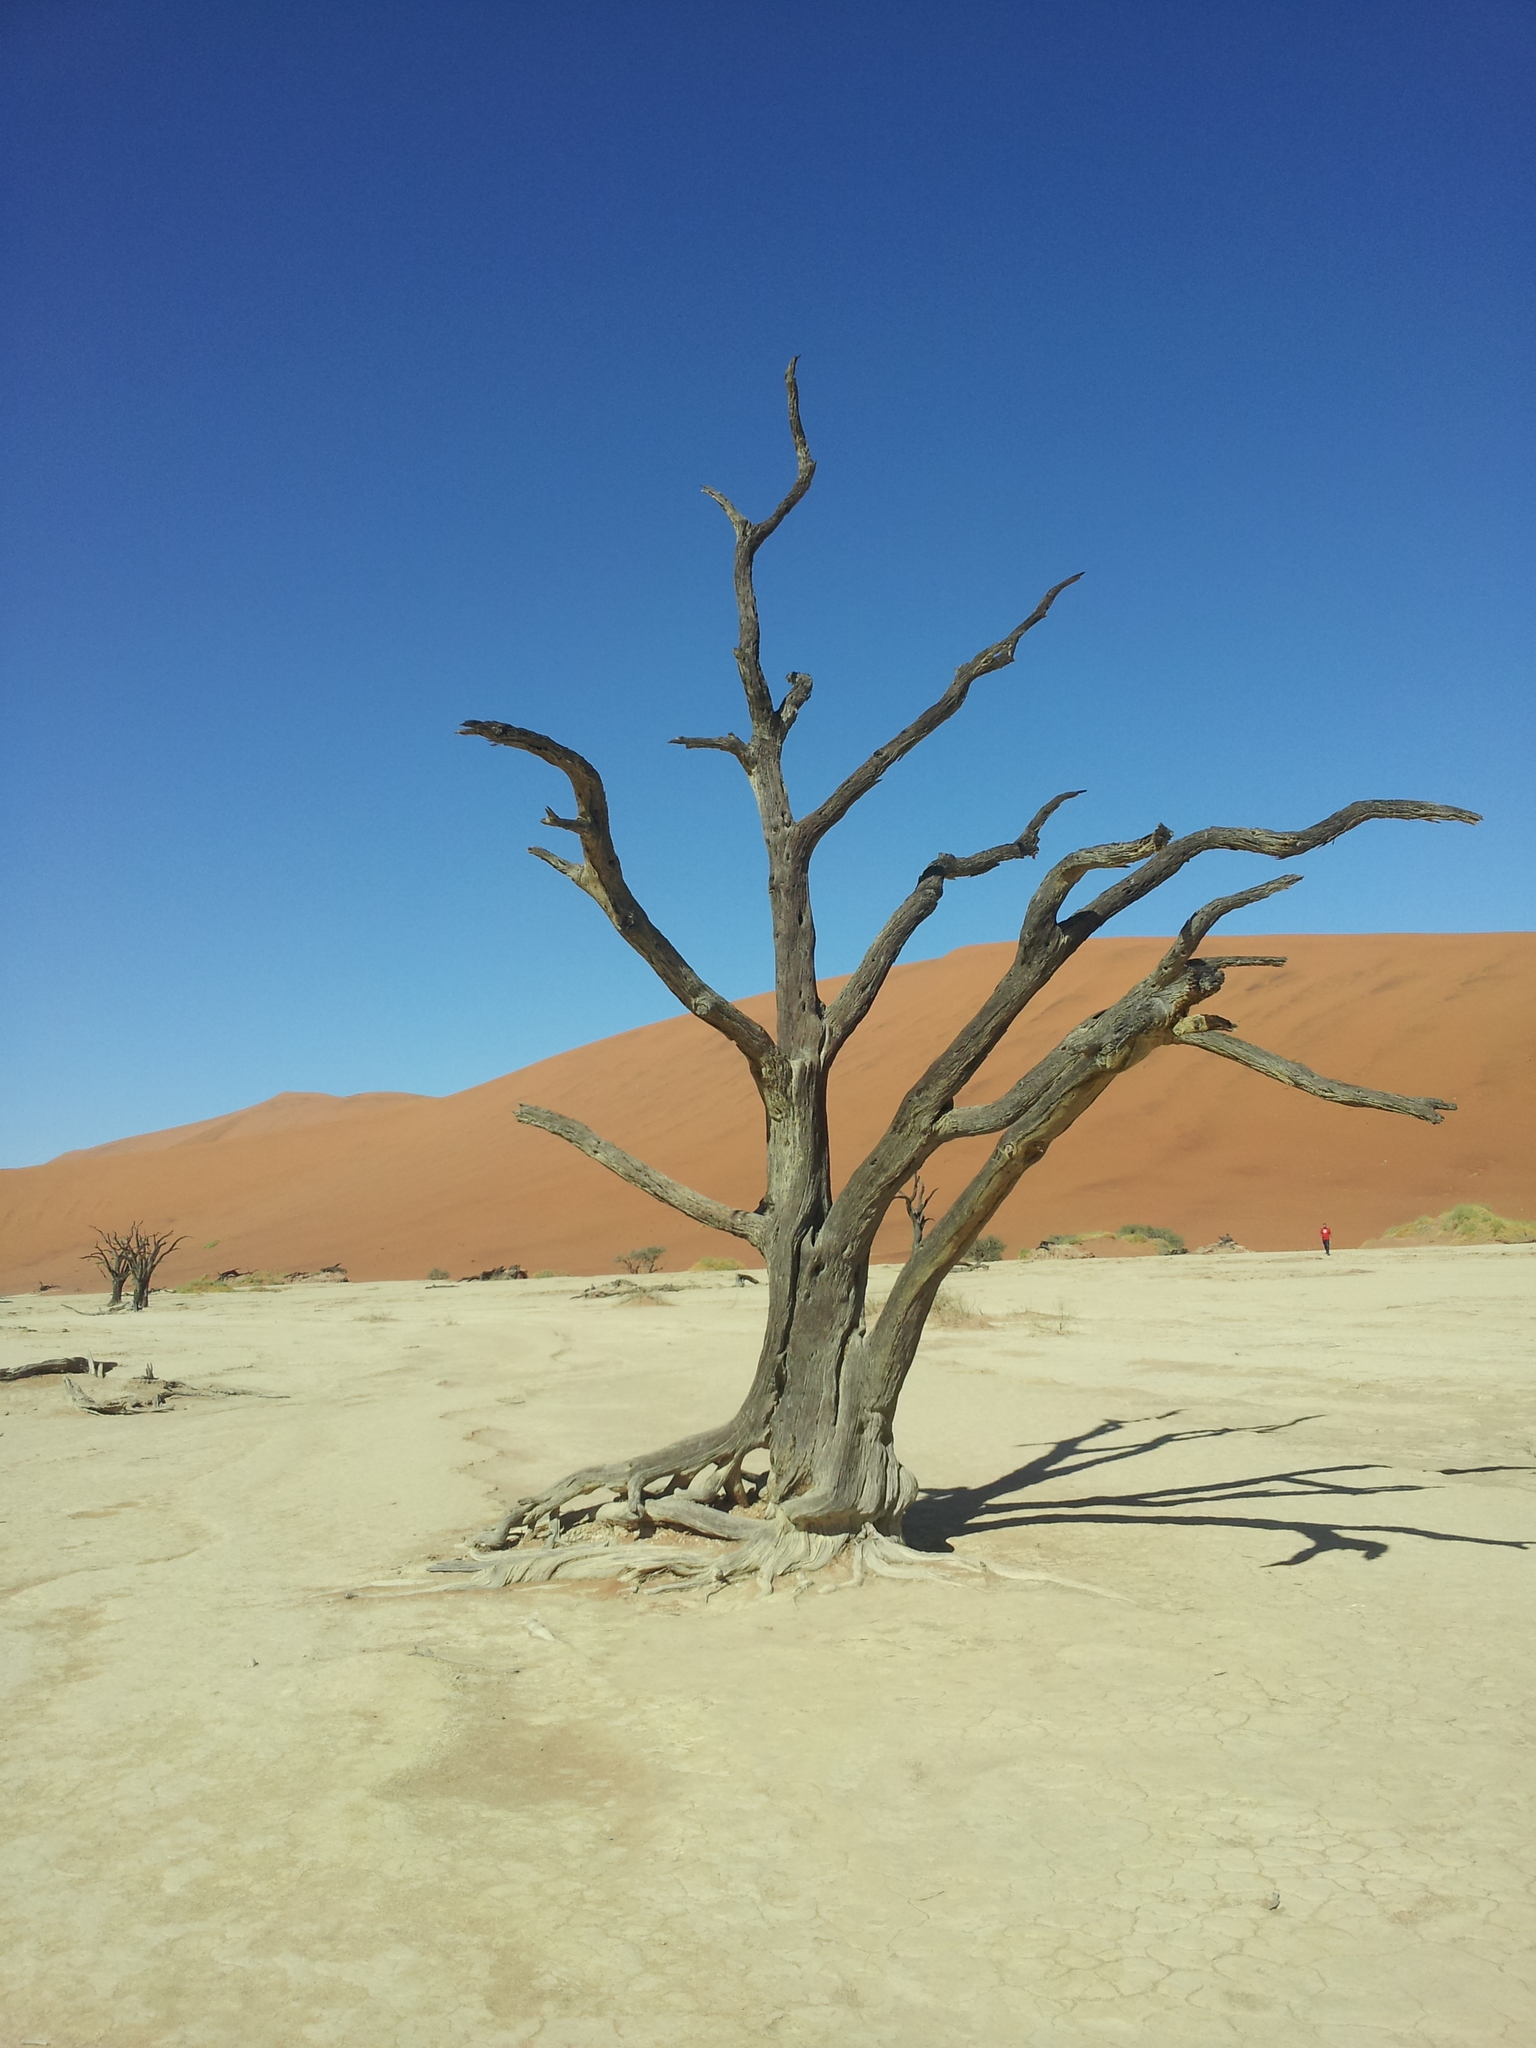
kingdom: Plantae
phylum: Tracheophyta
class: Magnoliopsida
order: Fabales
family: Fabaceae
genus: Vachellia
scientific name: Vachellia erioloba
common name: Camel thorn
